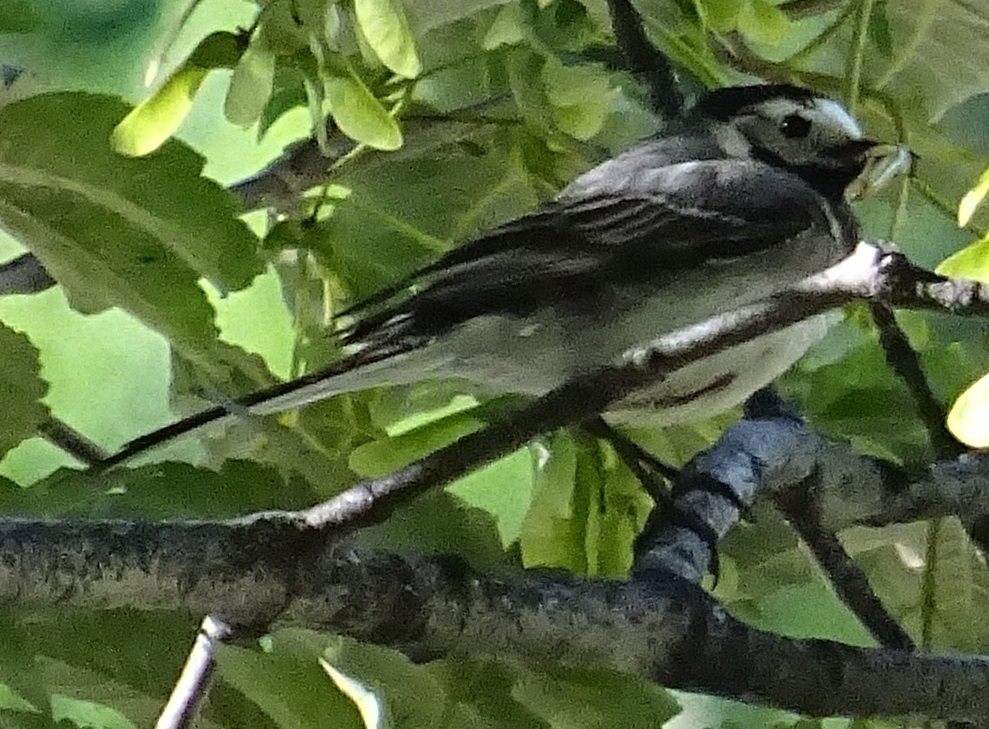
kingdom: Animalia
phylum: Chordata
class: Aves
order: Passeriformes
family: Motacillidae
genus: Motacilla
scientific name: Motacilla alba
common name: White wagtail
